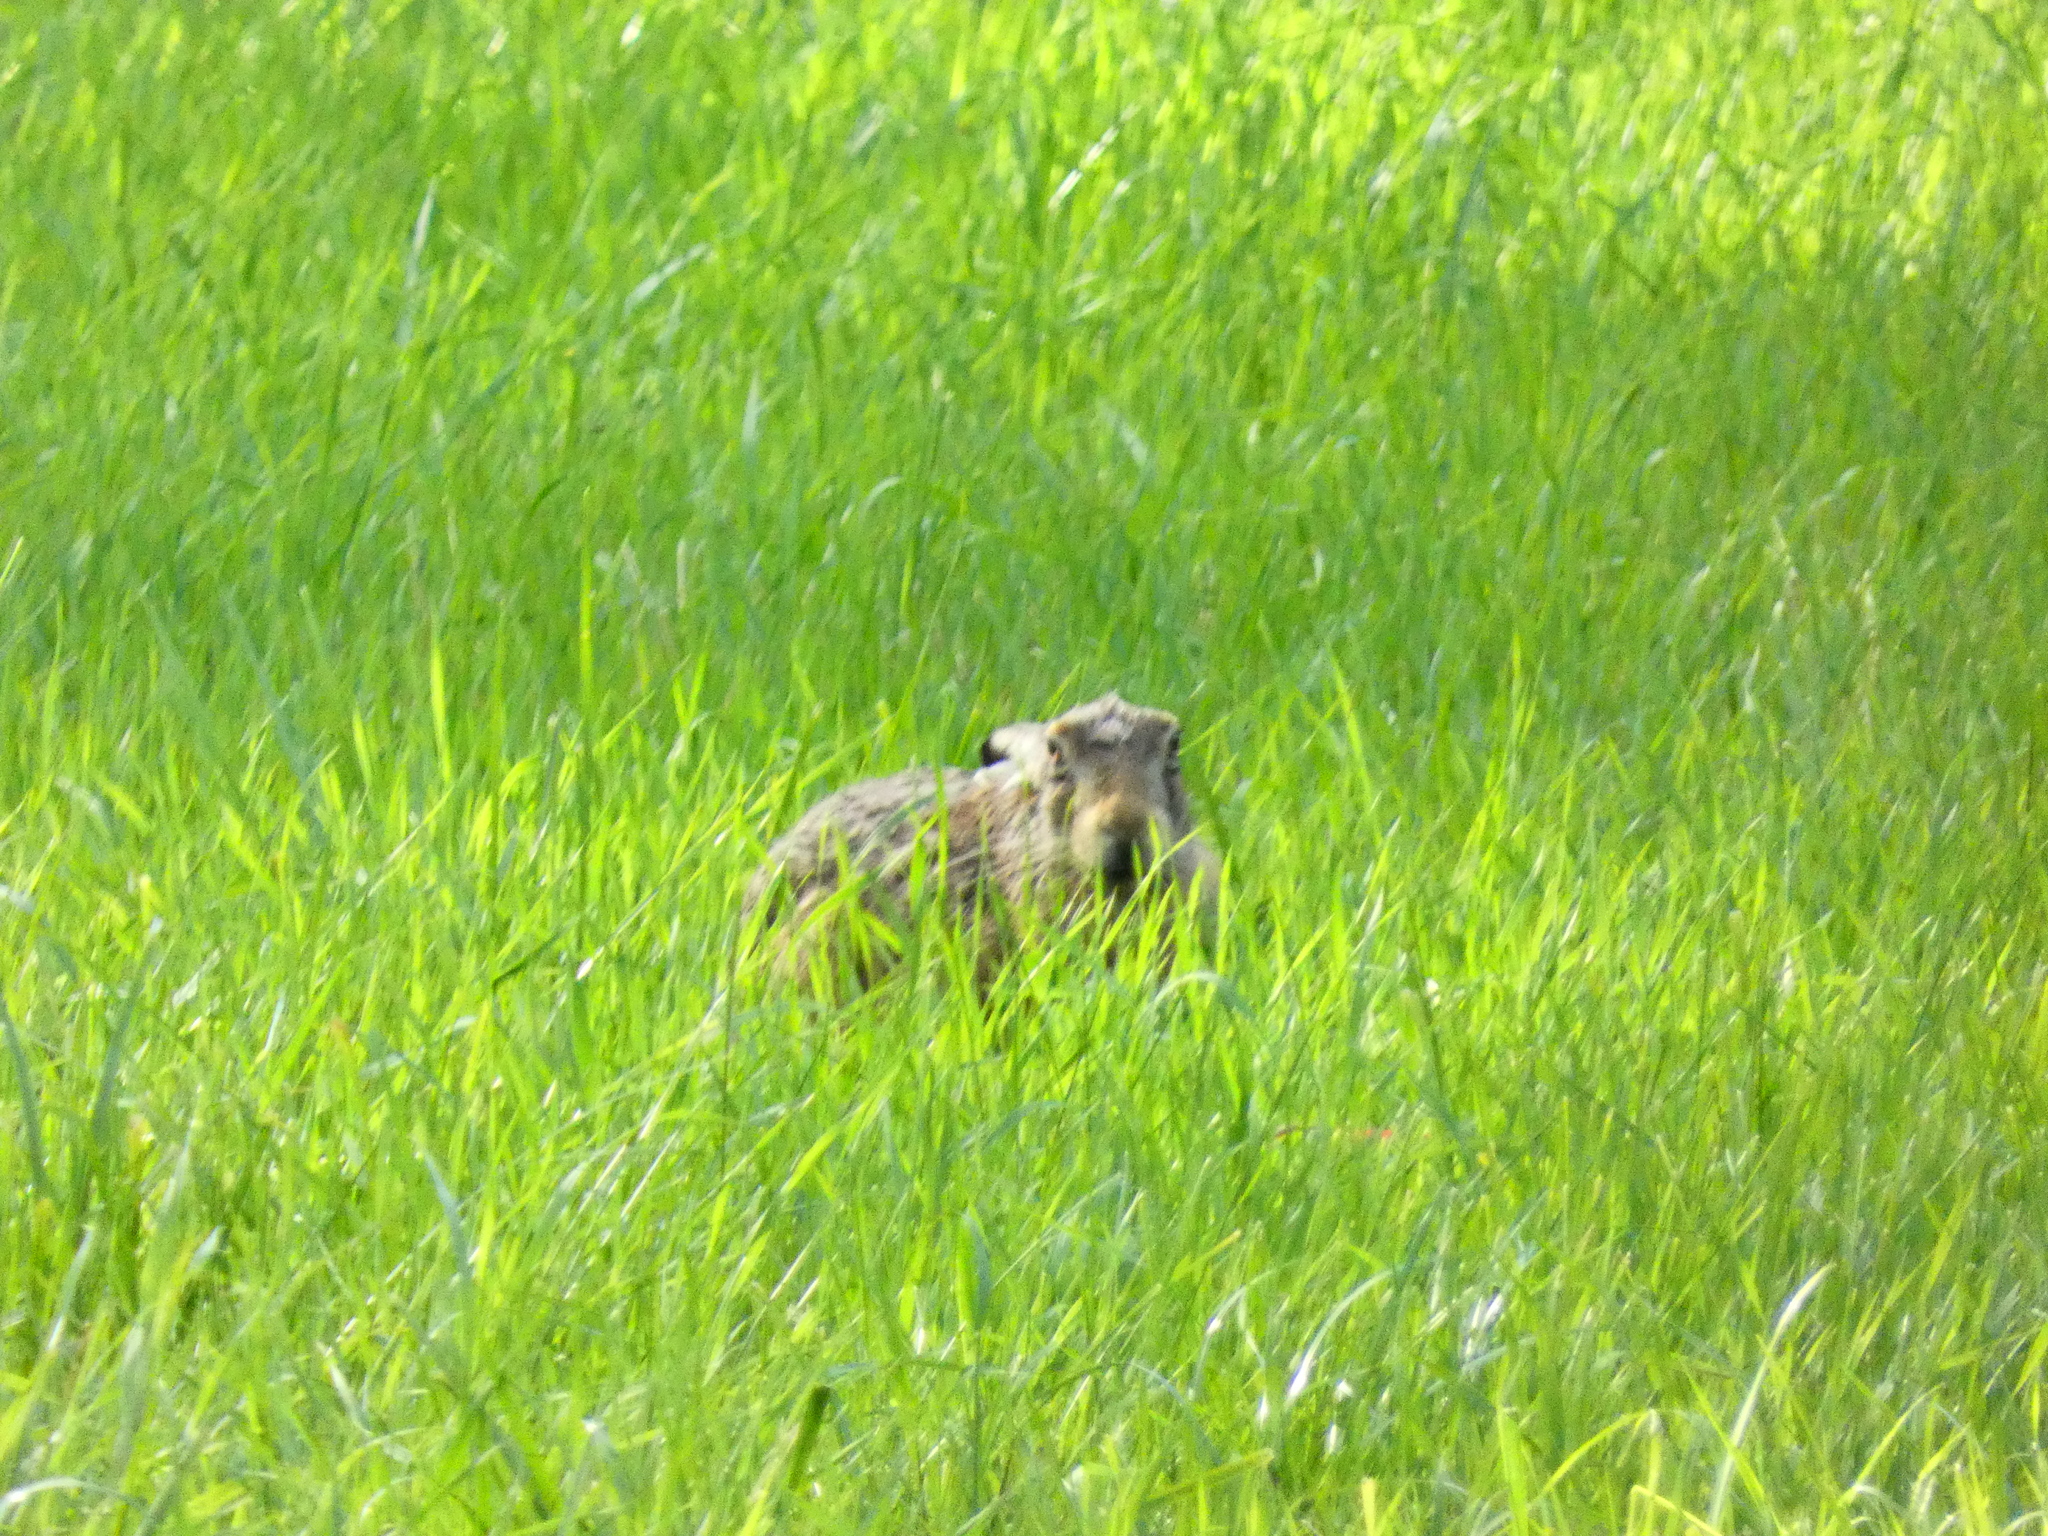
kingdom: Animalia
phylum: Chordata
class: Mammalia
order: Lagomorpha
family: Leporidae
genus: Lepus
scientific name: Lepus europaeus
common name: European hare
